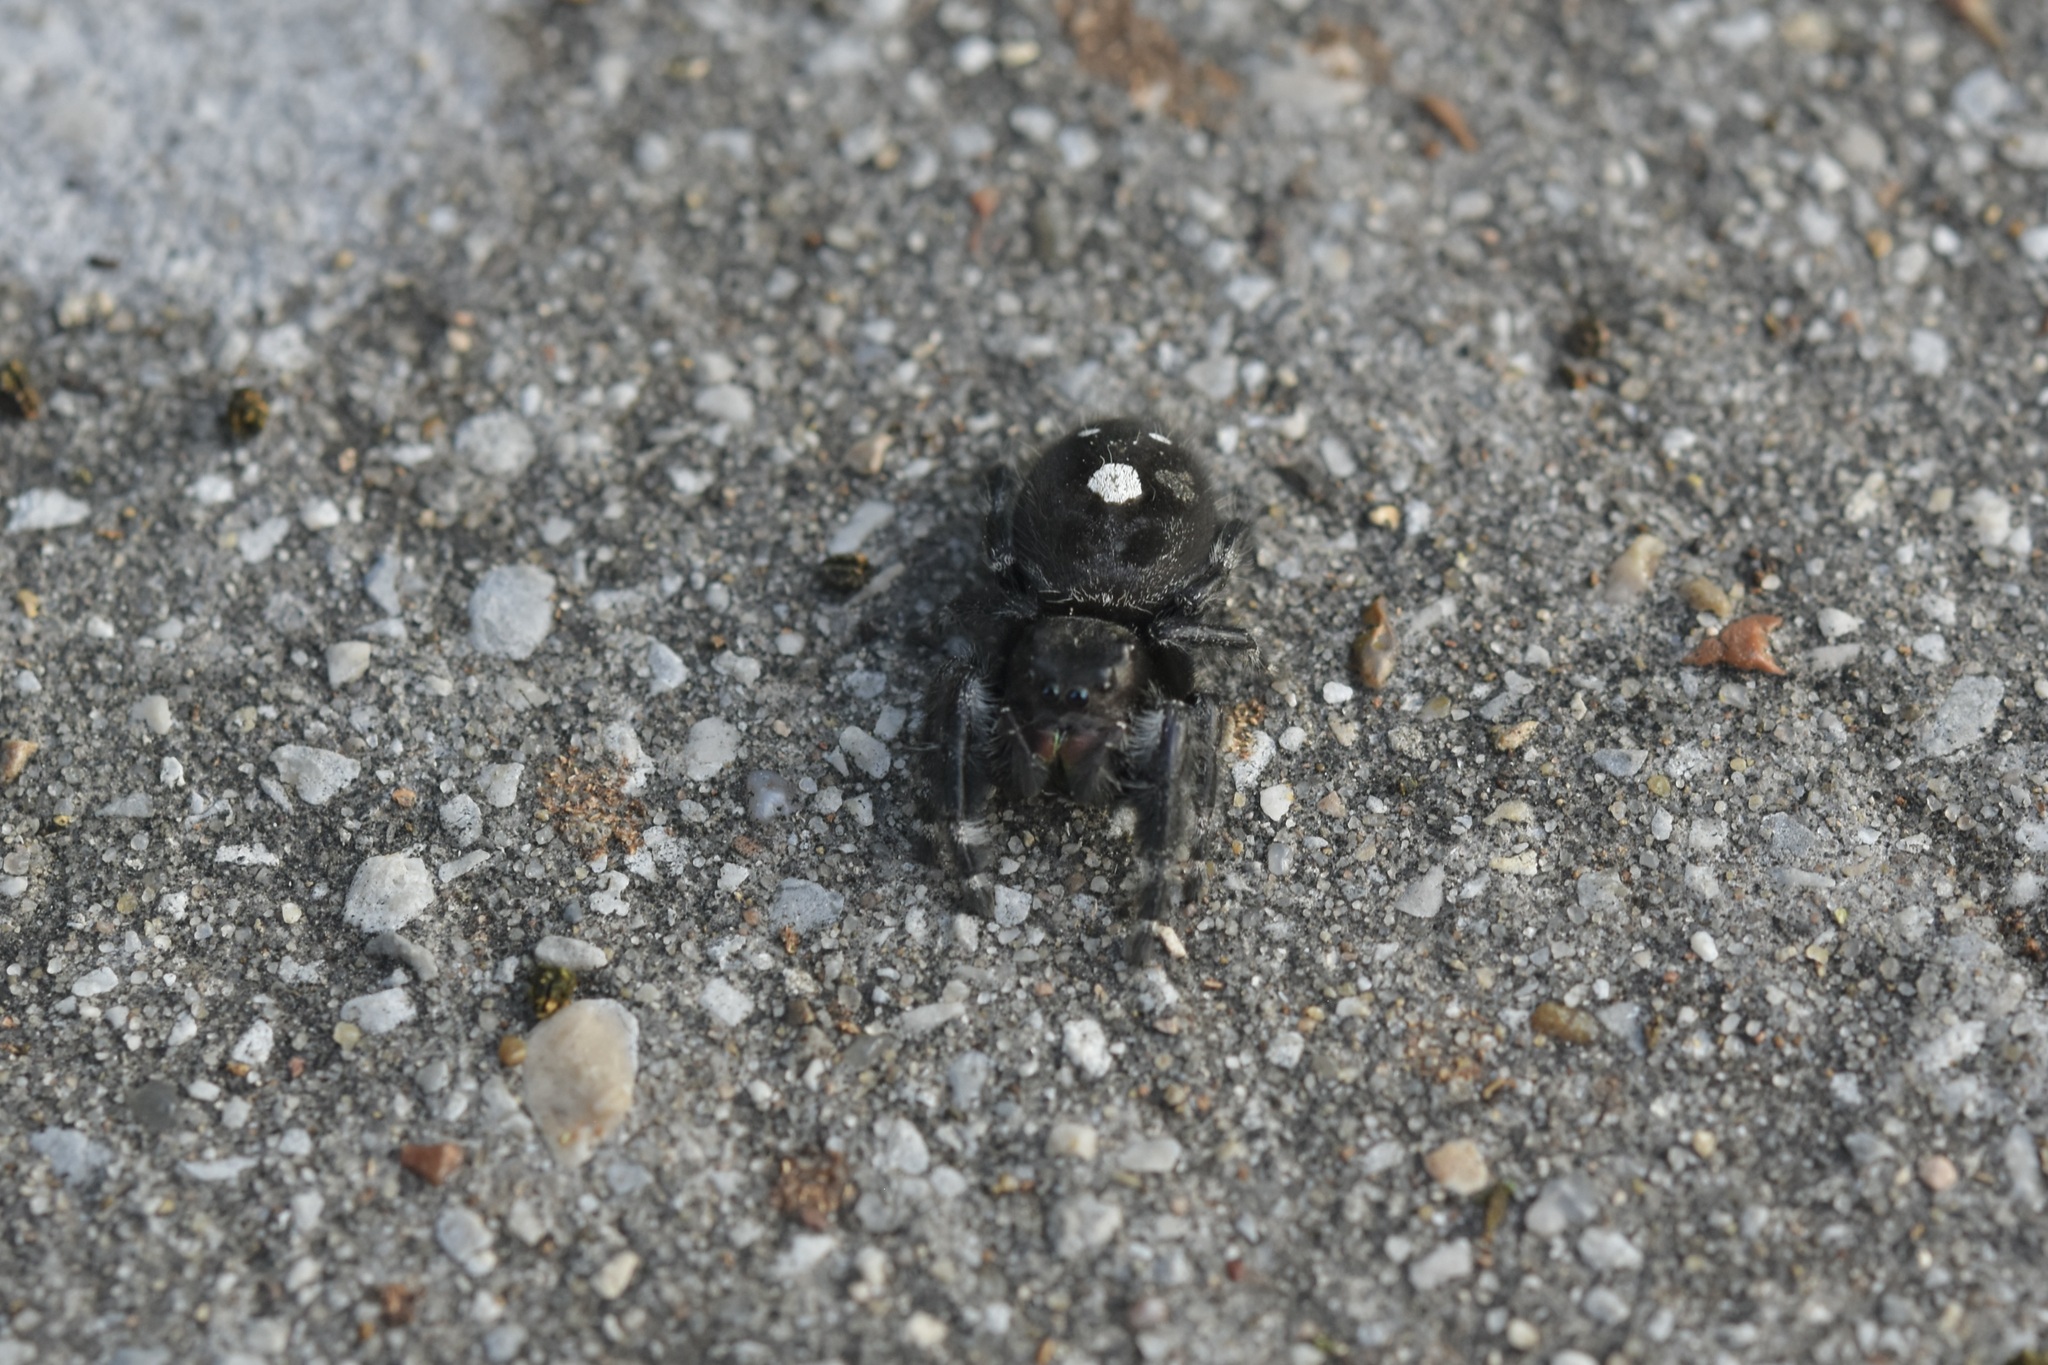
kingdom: Animalia
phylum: Arthropoda
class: Arachnida
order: Araneae
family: Salticidae
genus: Phidippus
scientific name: Phidippus audax
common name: Bold jumper
